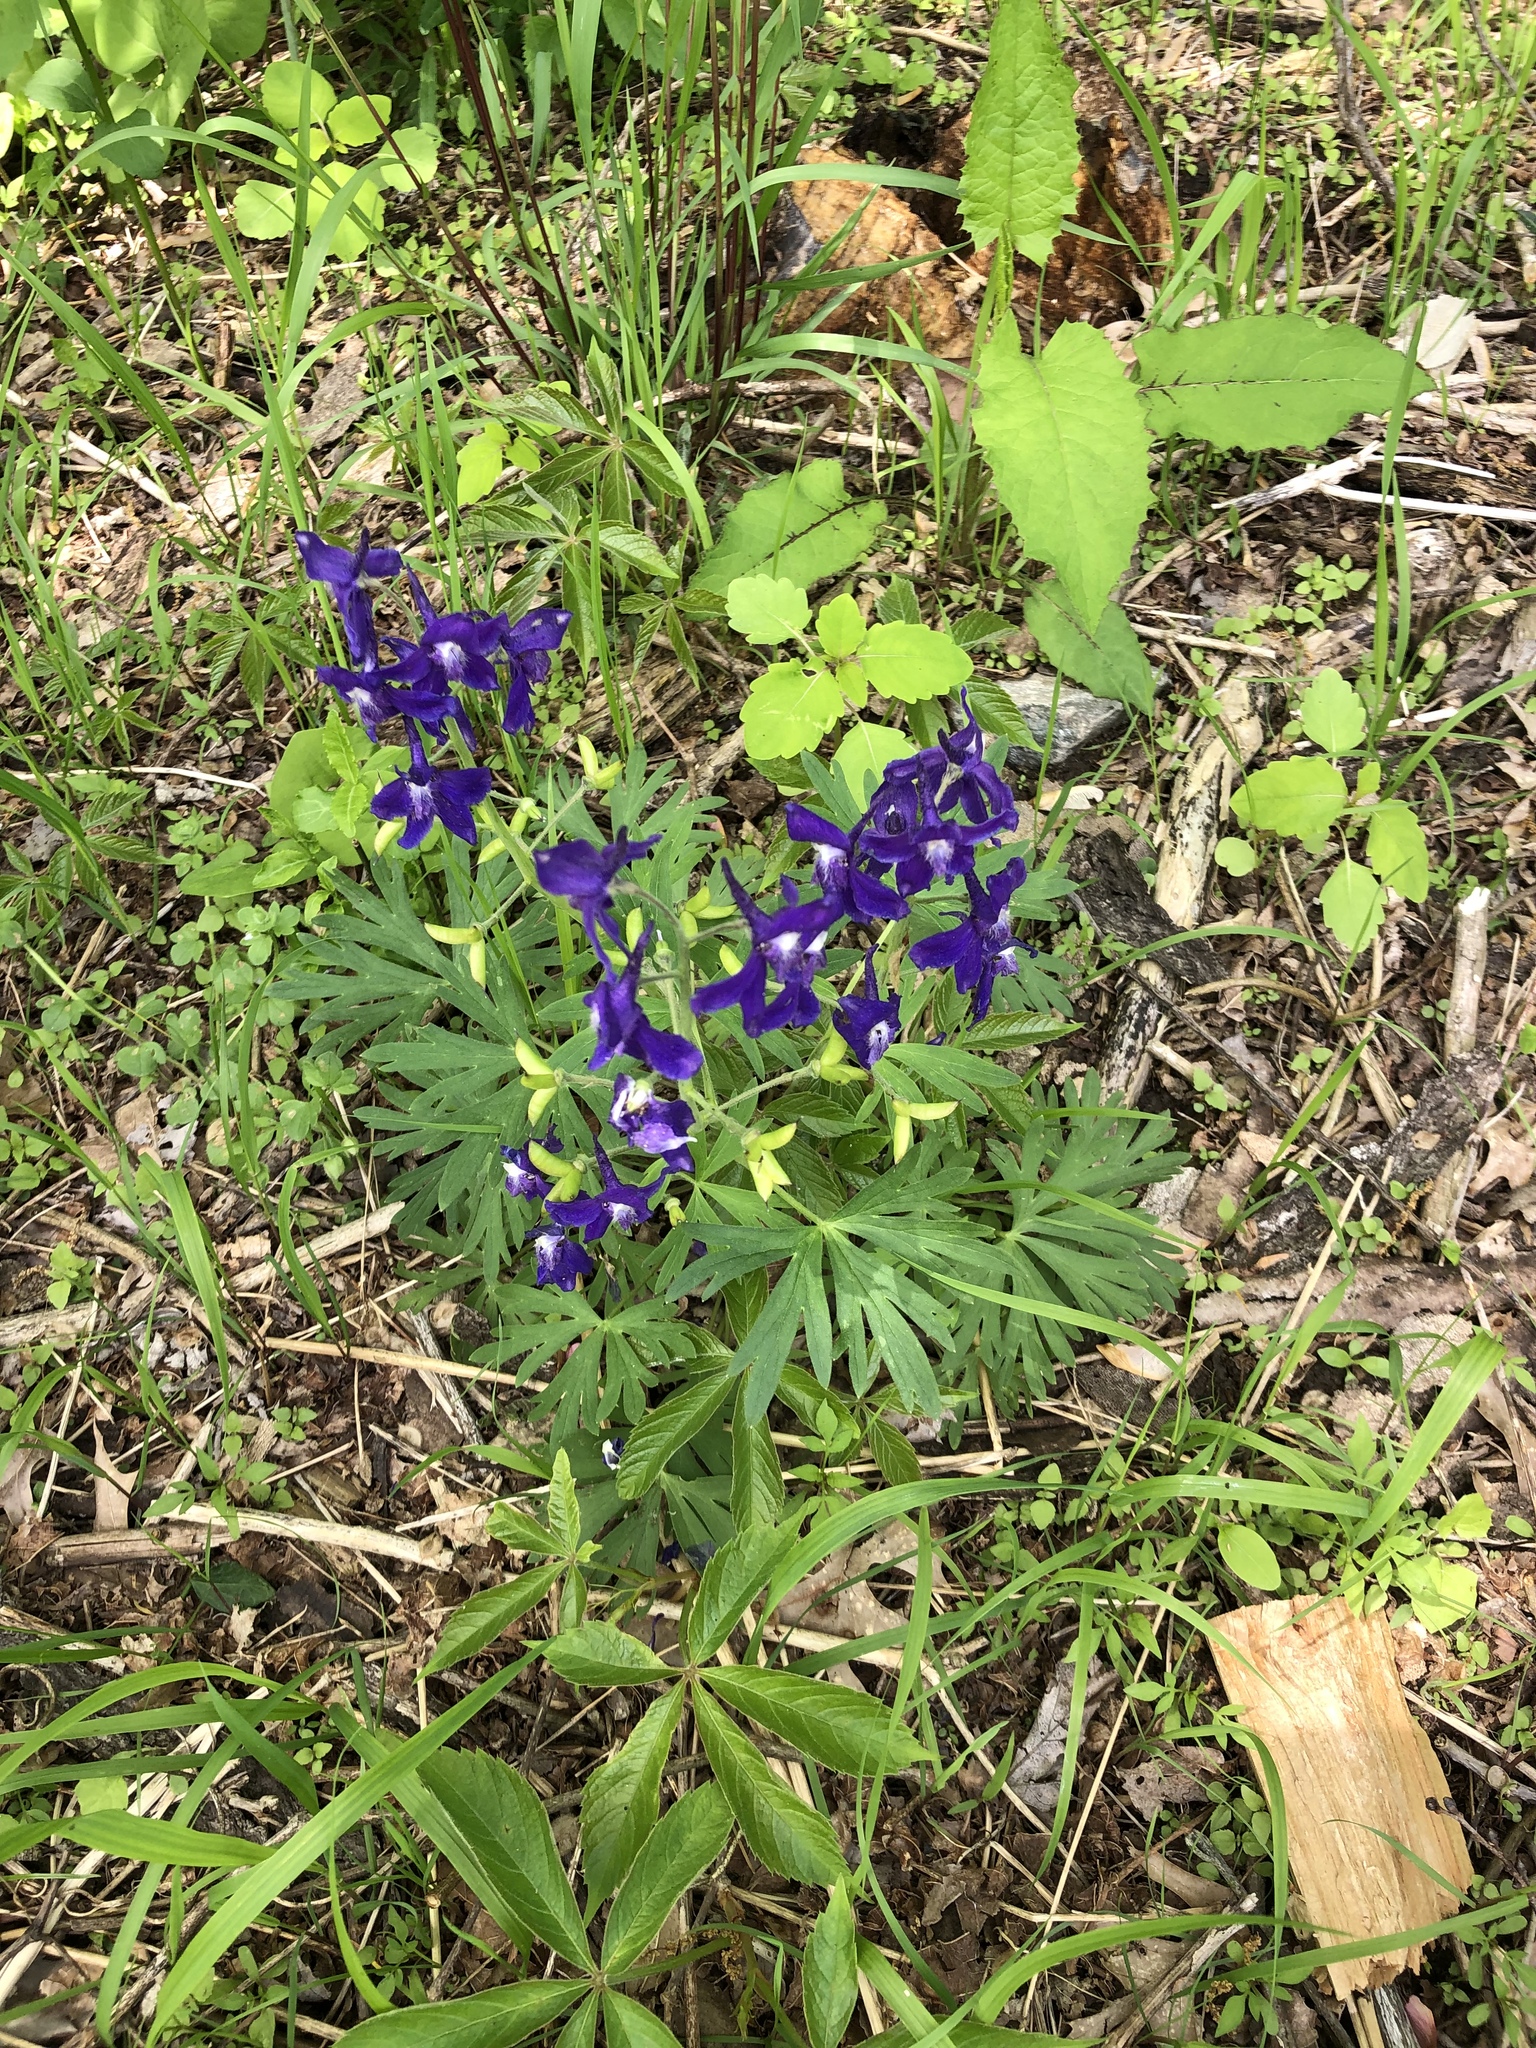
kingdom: Plantae
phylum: Tracheophyta
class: Magnoliopsida
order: Ranunculales
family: Ranunculaceae
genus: Delphinium
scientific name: Delphinium tricorne
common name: Dwarf larkspur
